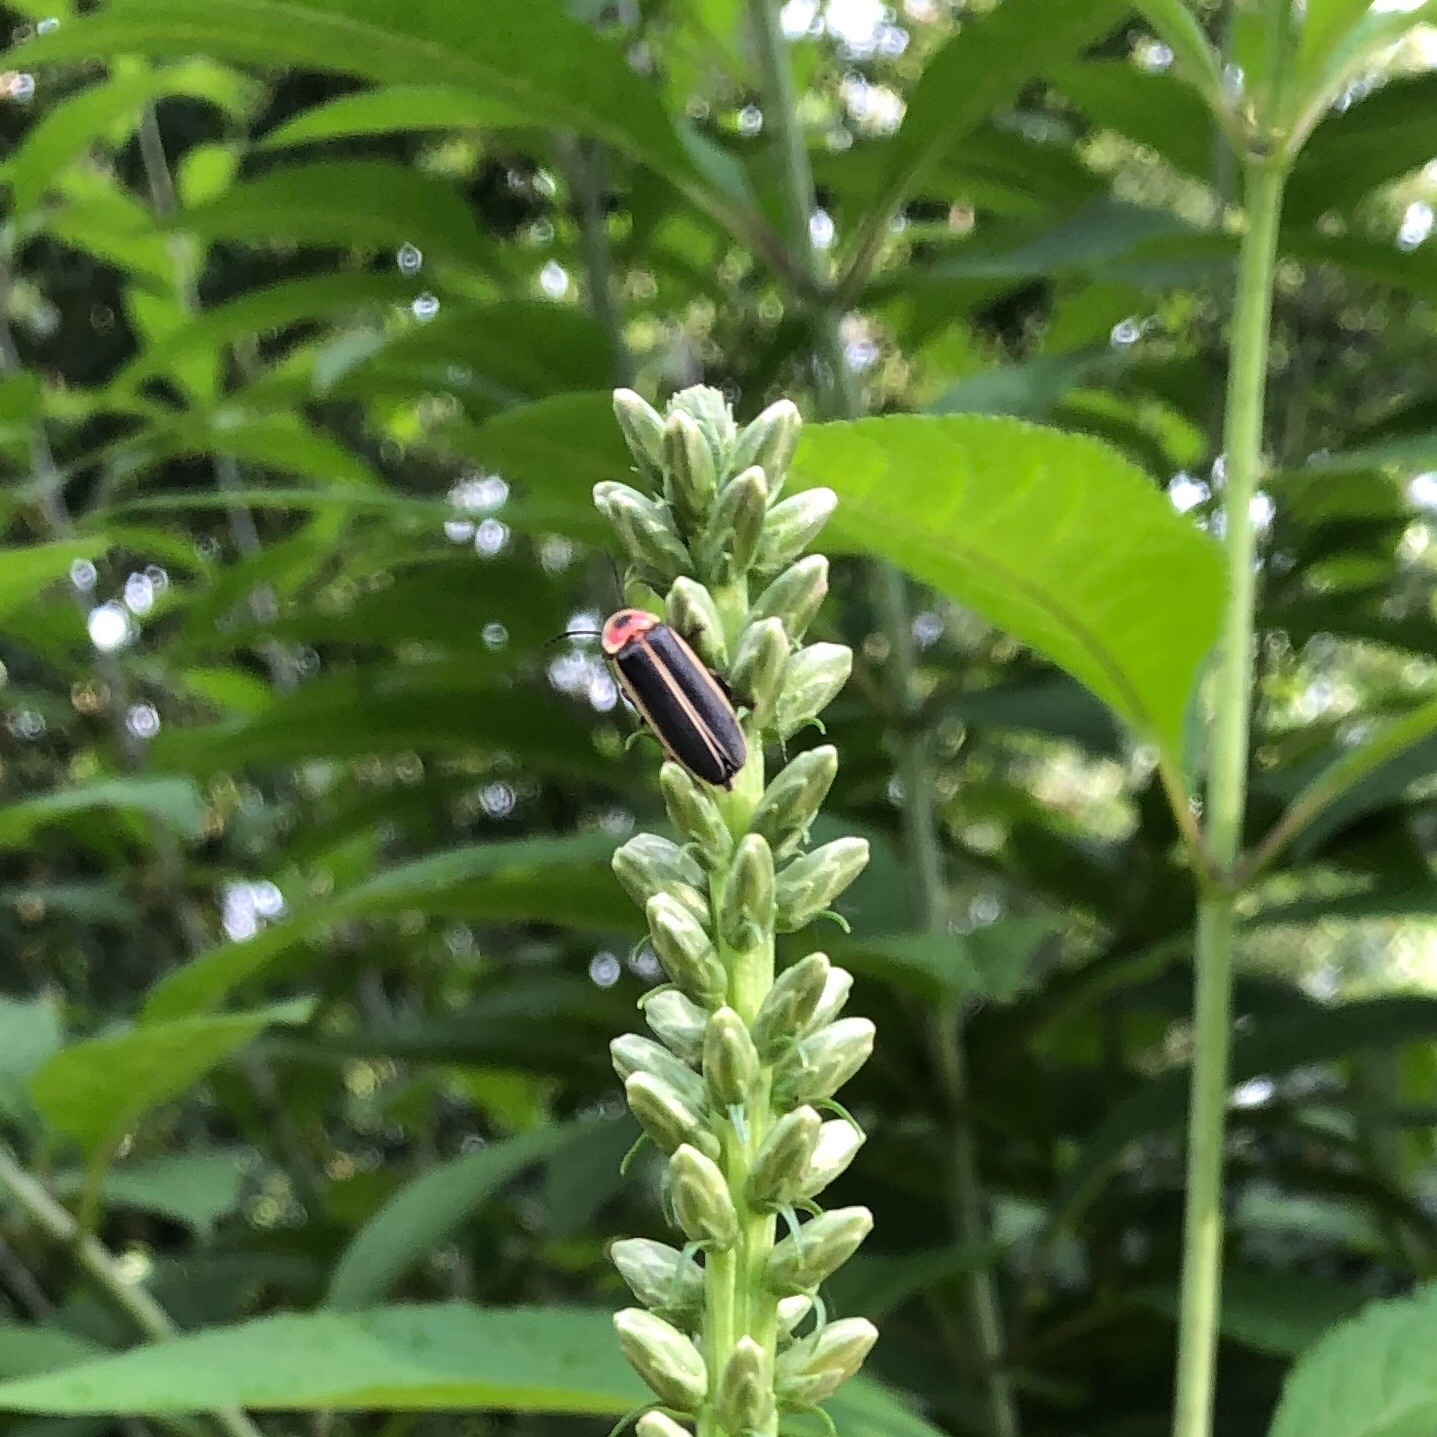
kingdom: Animalia
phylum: Arthropoda
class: Insecta
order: Coleoptera
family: Lampyridae
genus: Photinus
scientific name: Photinus pyralis
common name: Big dipper firefly
